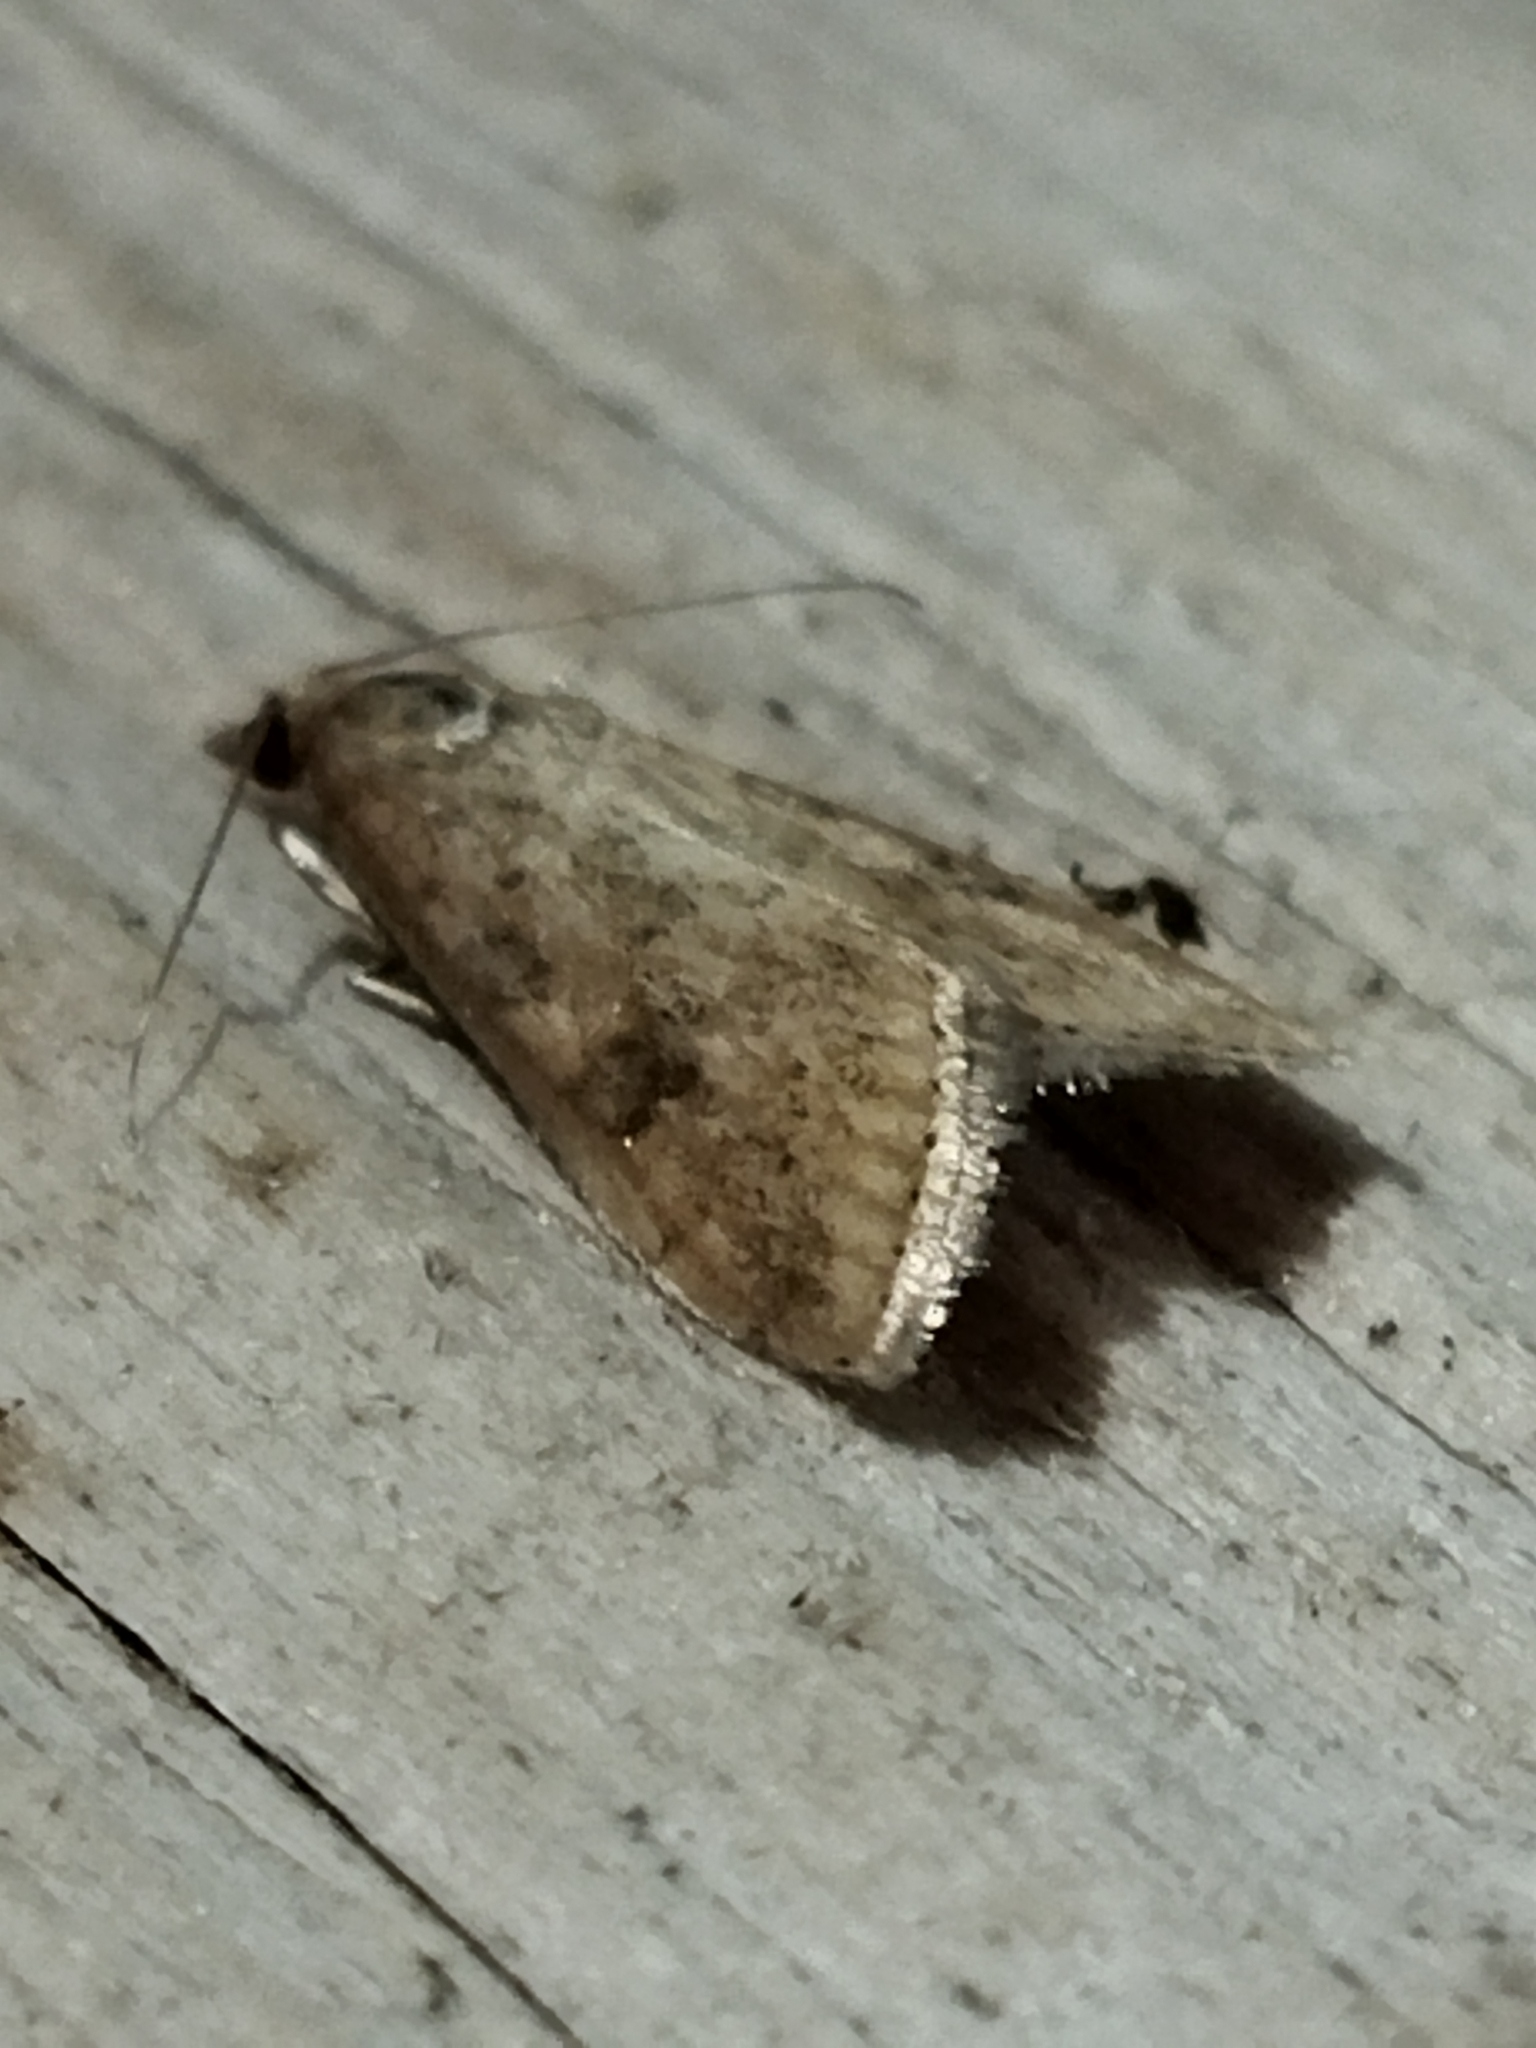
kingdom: Animalia
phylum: Arthropoda
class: Insecta
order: Lepidoptera
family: Crambidae
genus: Udea
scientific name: Udea ferrugalis
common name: Rusty dot
